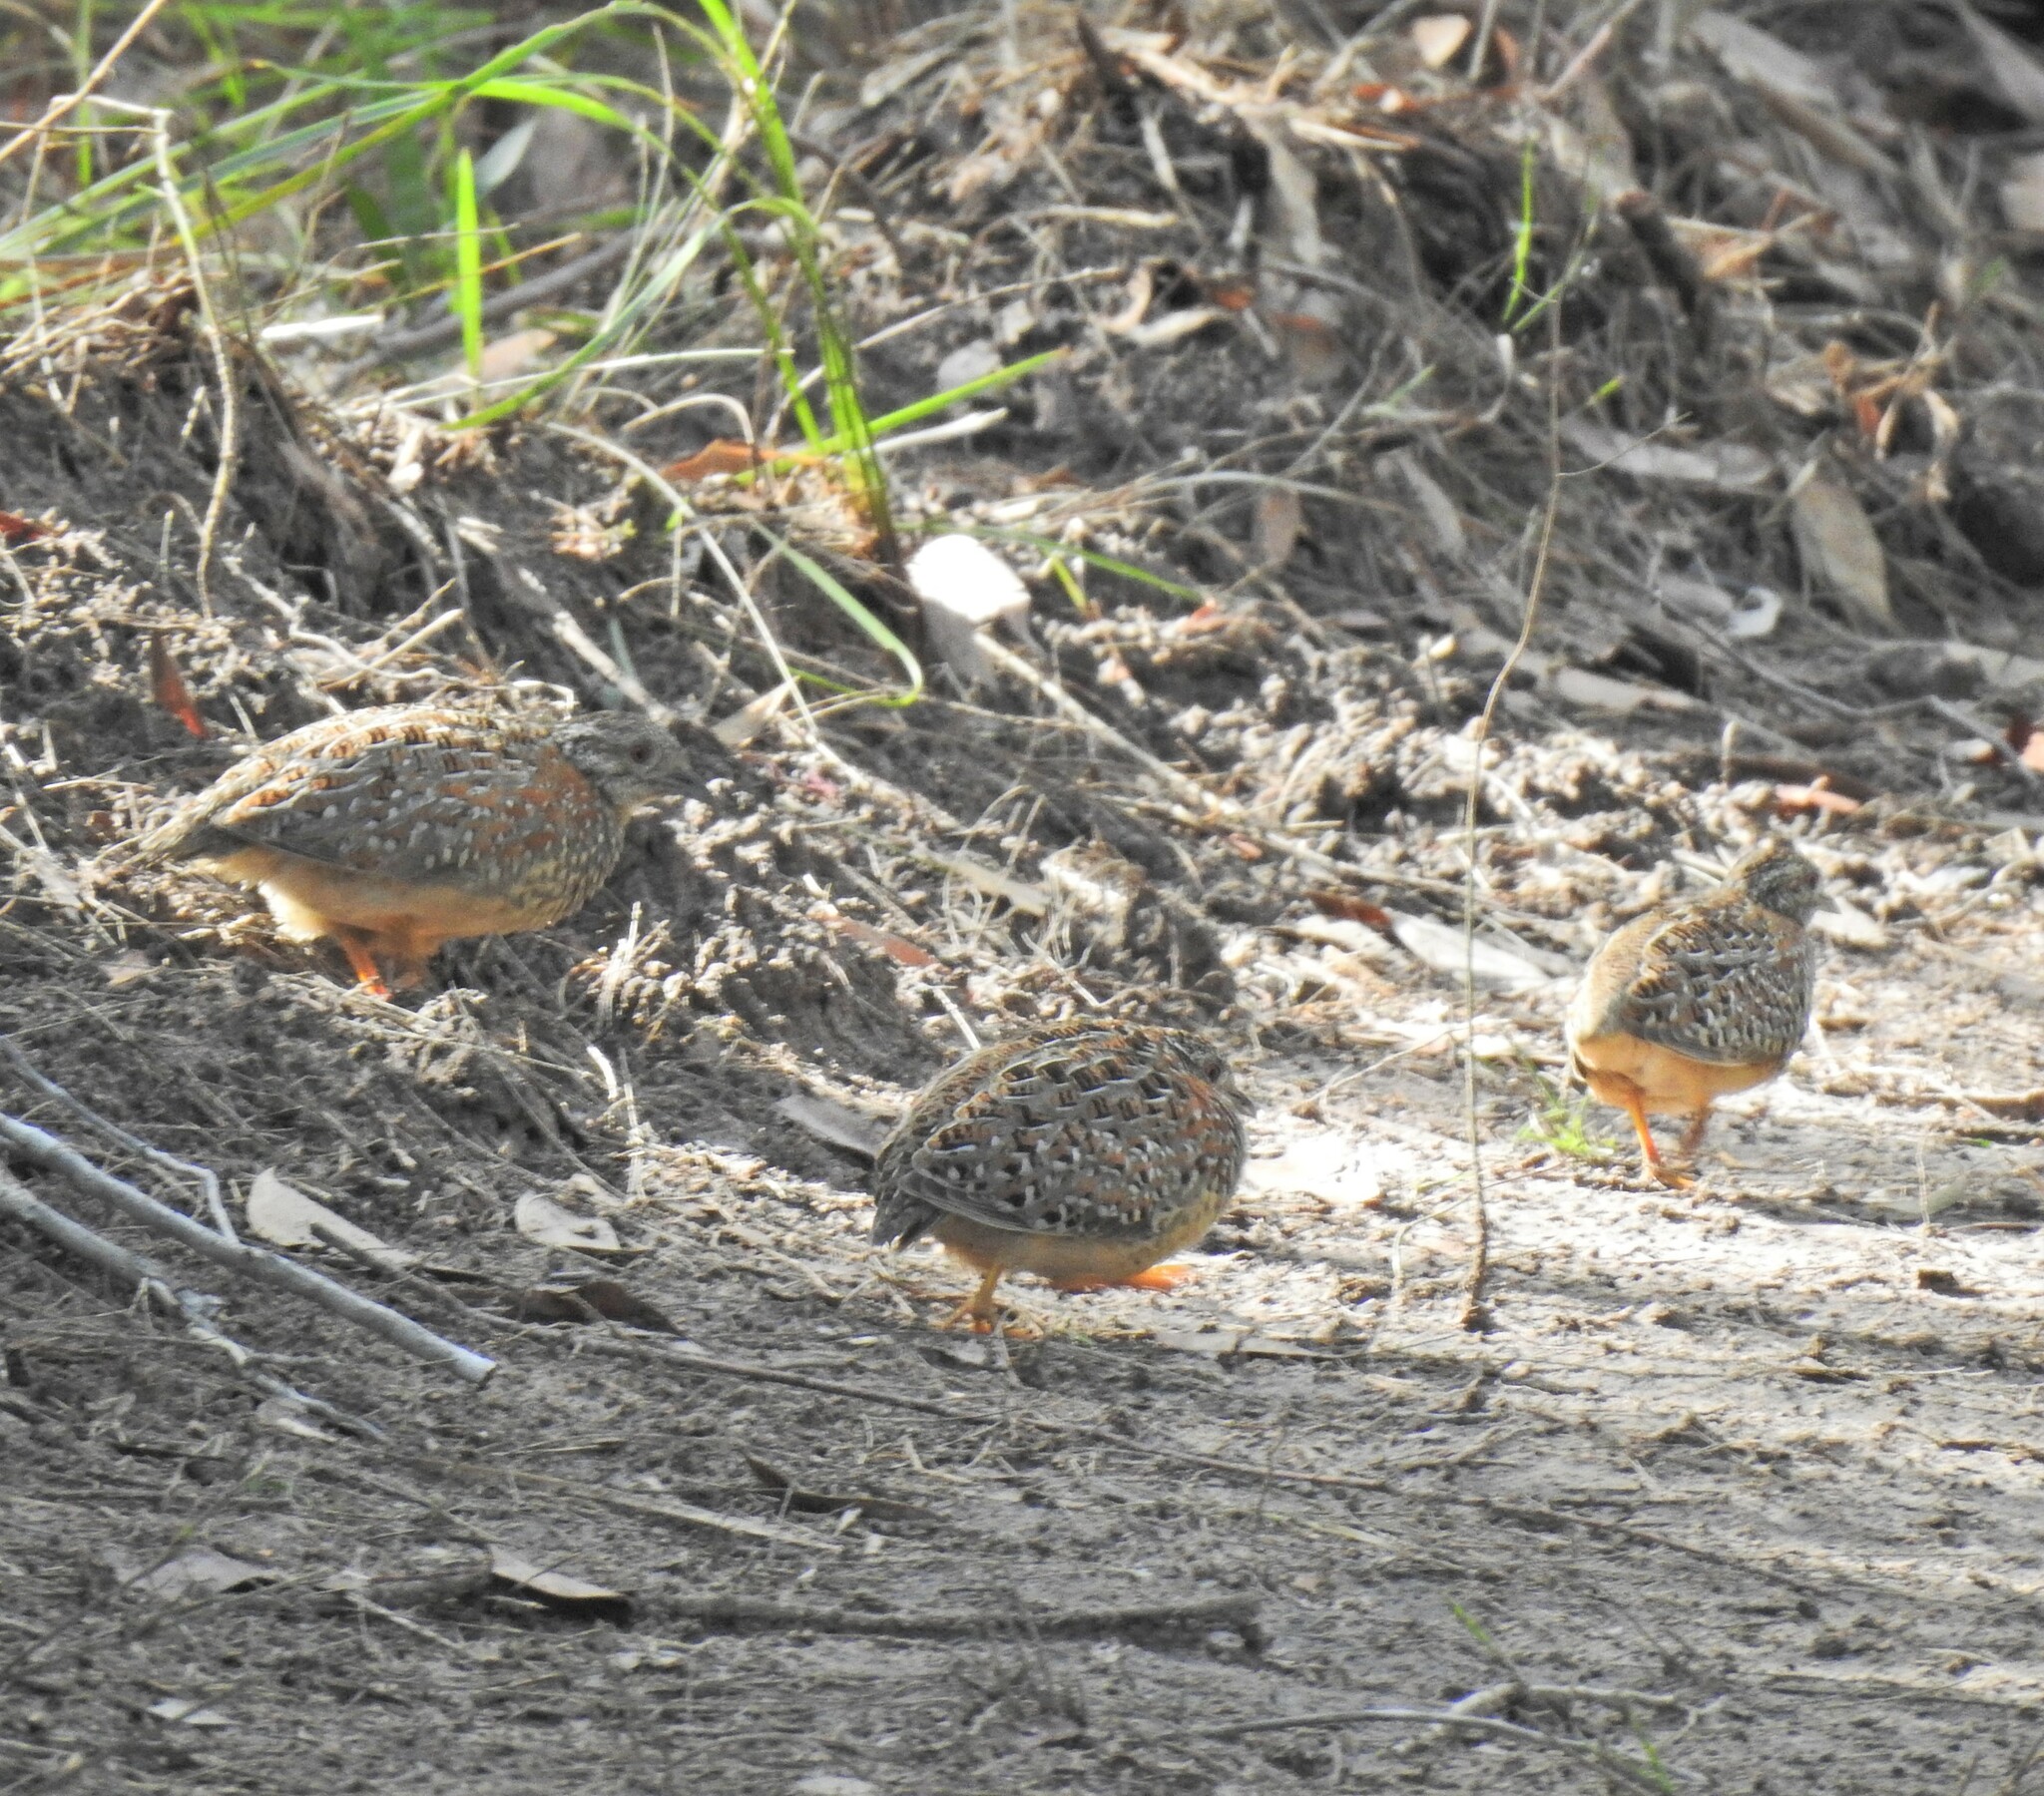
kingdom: Animalia
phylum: Chordata
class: Aves
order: Charadriiformes
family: Turnicidae
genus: Turnix
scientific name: Turnix varius
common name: Painted buttonquail
